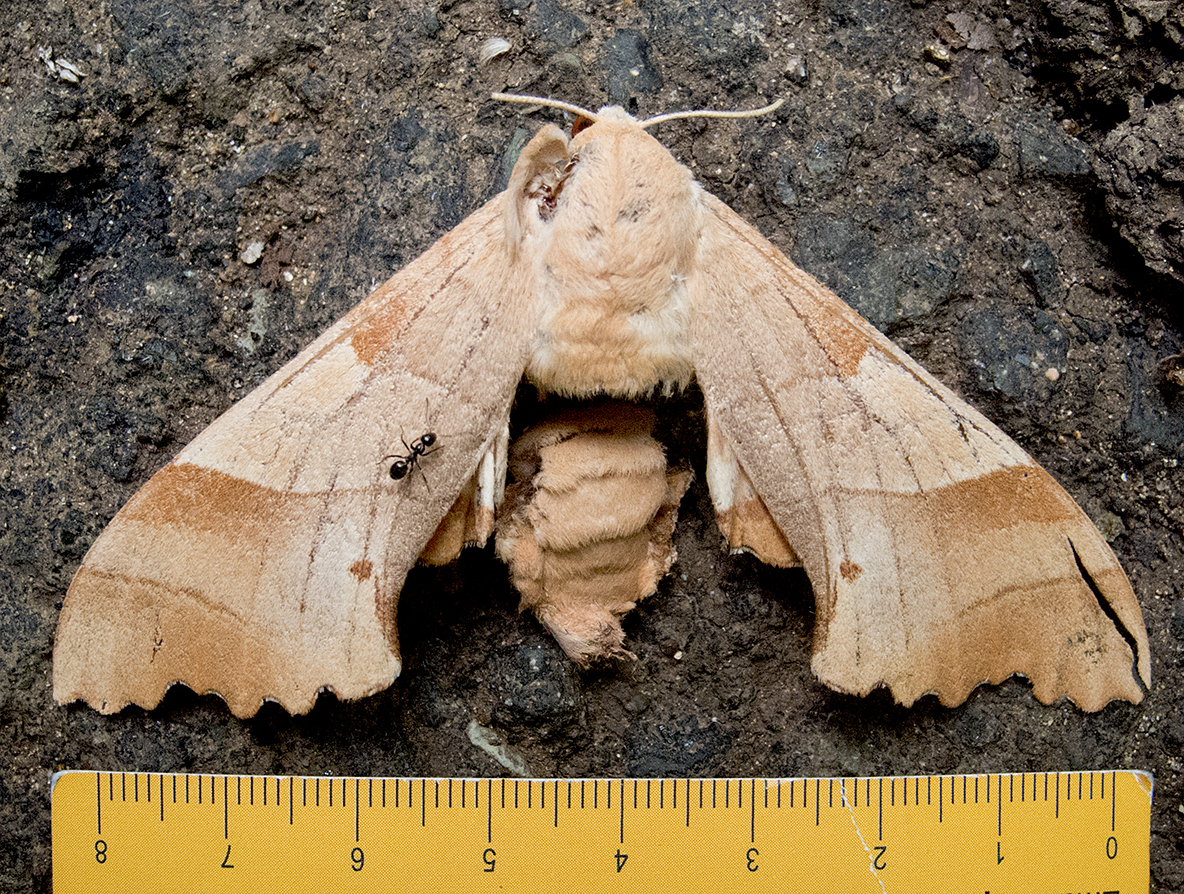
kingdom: Animalia
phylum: Arthropoda
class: Insecta
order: Lepidoptera
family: Sphingidae
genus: Marumba
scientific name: Marumba quercus
